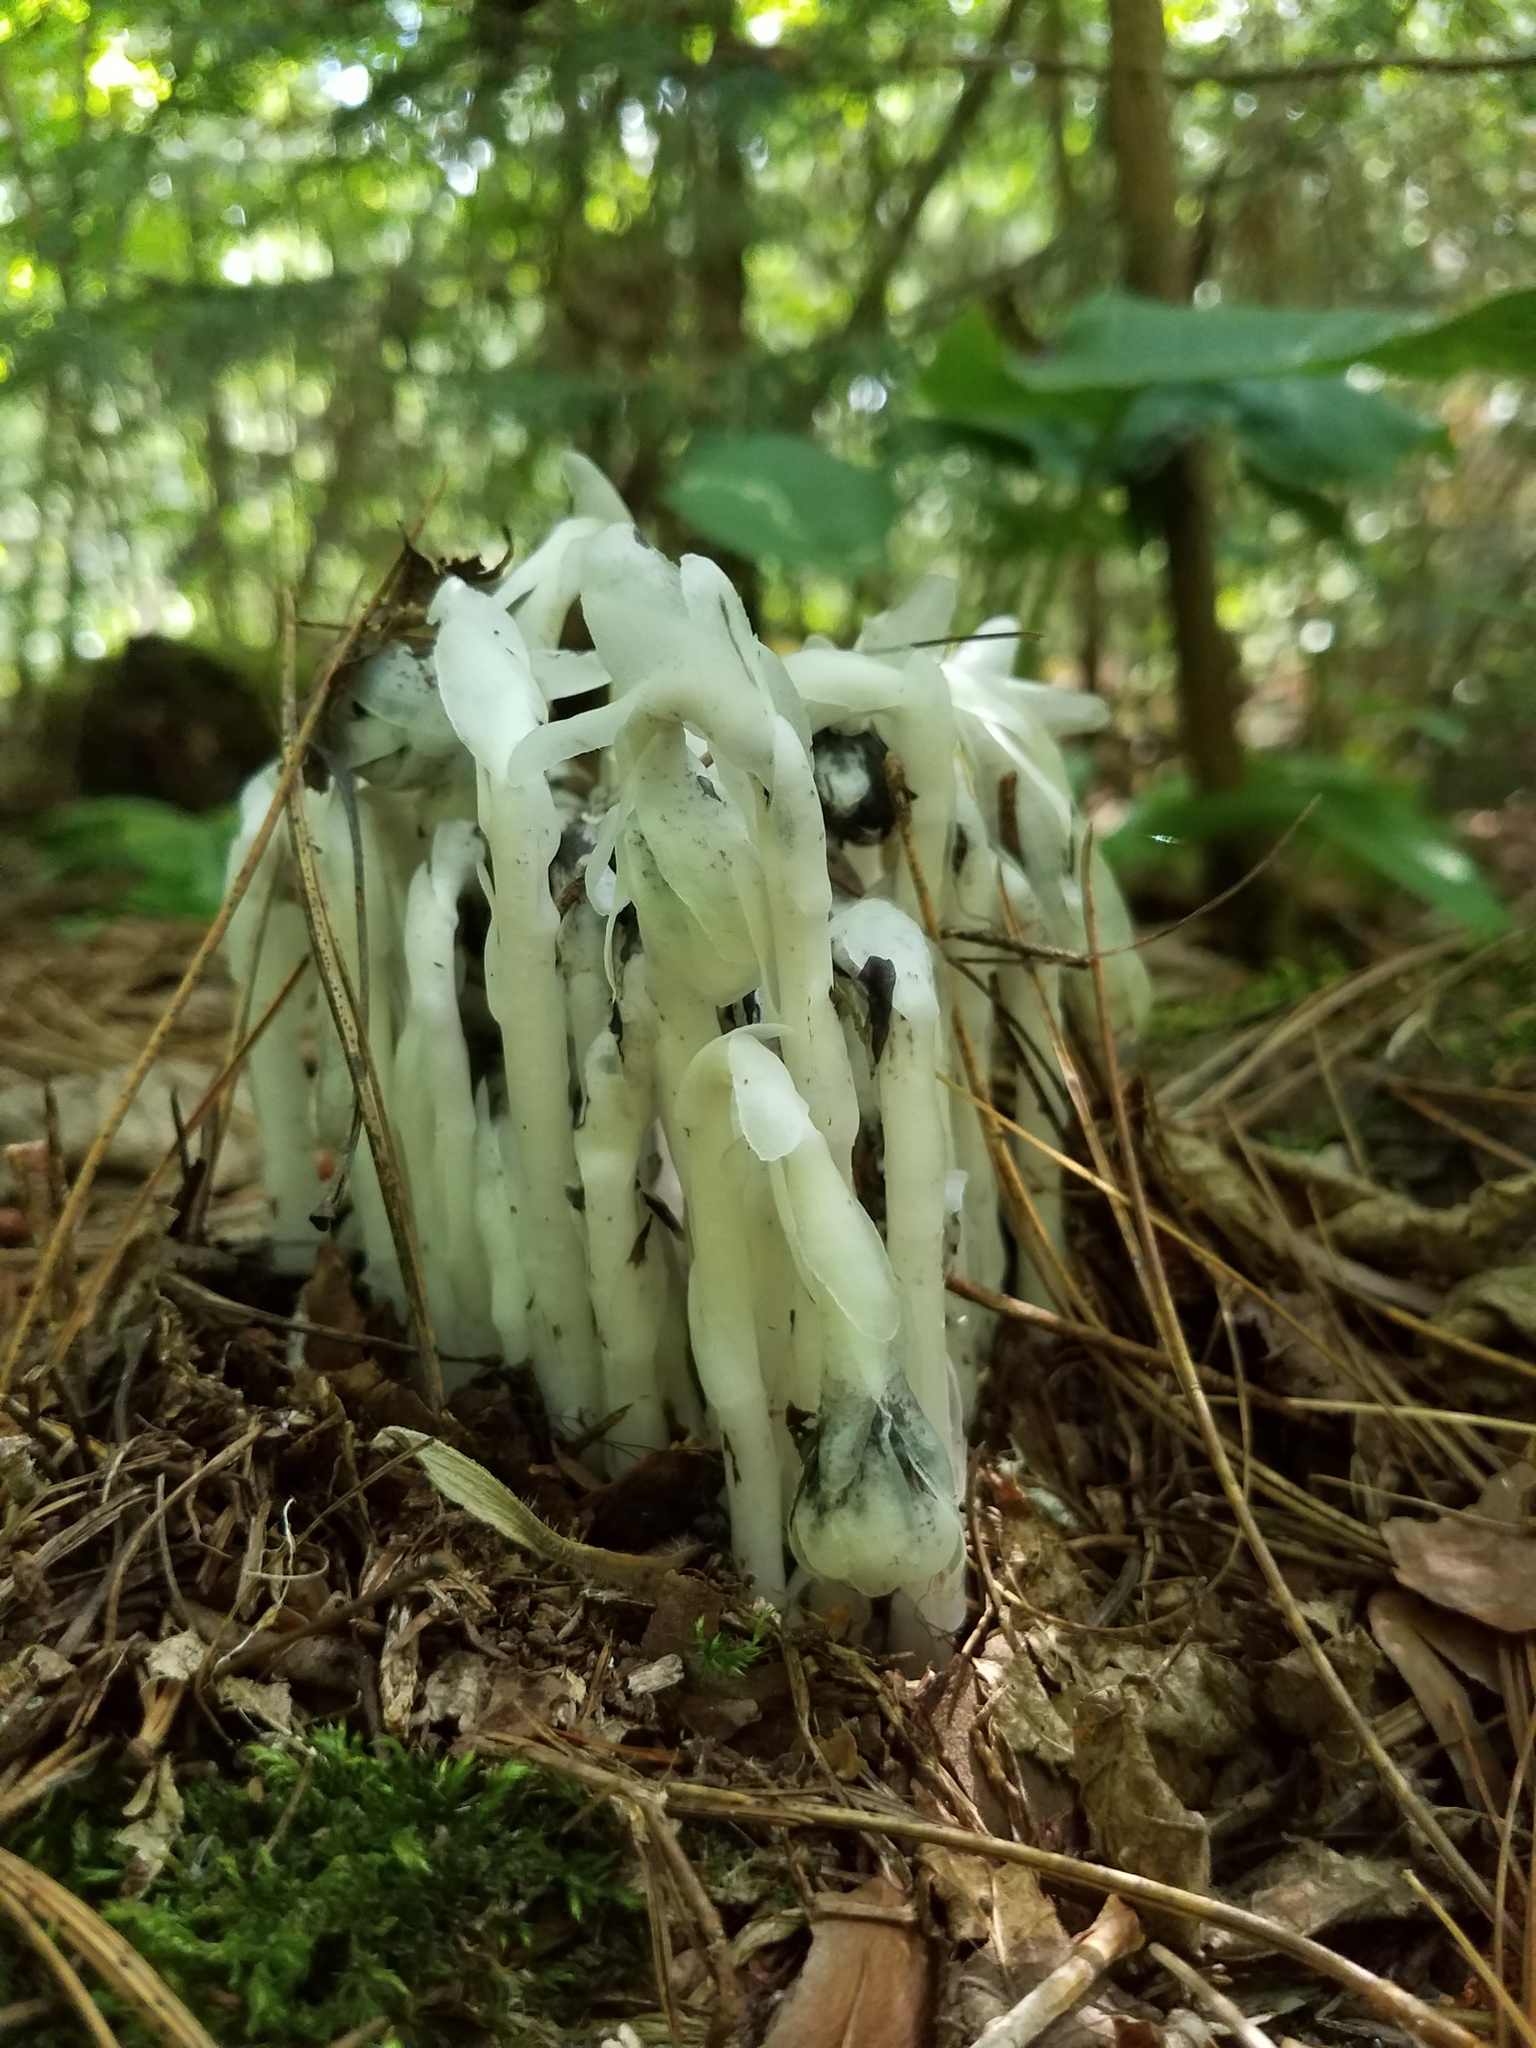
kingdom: Plantae
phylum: Tracheophyta
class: Magnoliopsida
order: Ericales
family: Ericaceae
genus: Monotropa
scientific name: Monotropa uniflora
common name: Convulsion root
